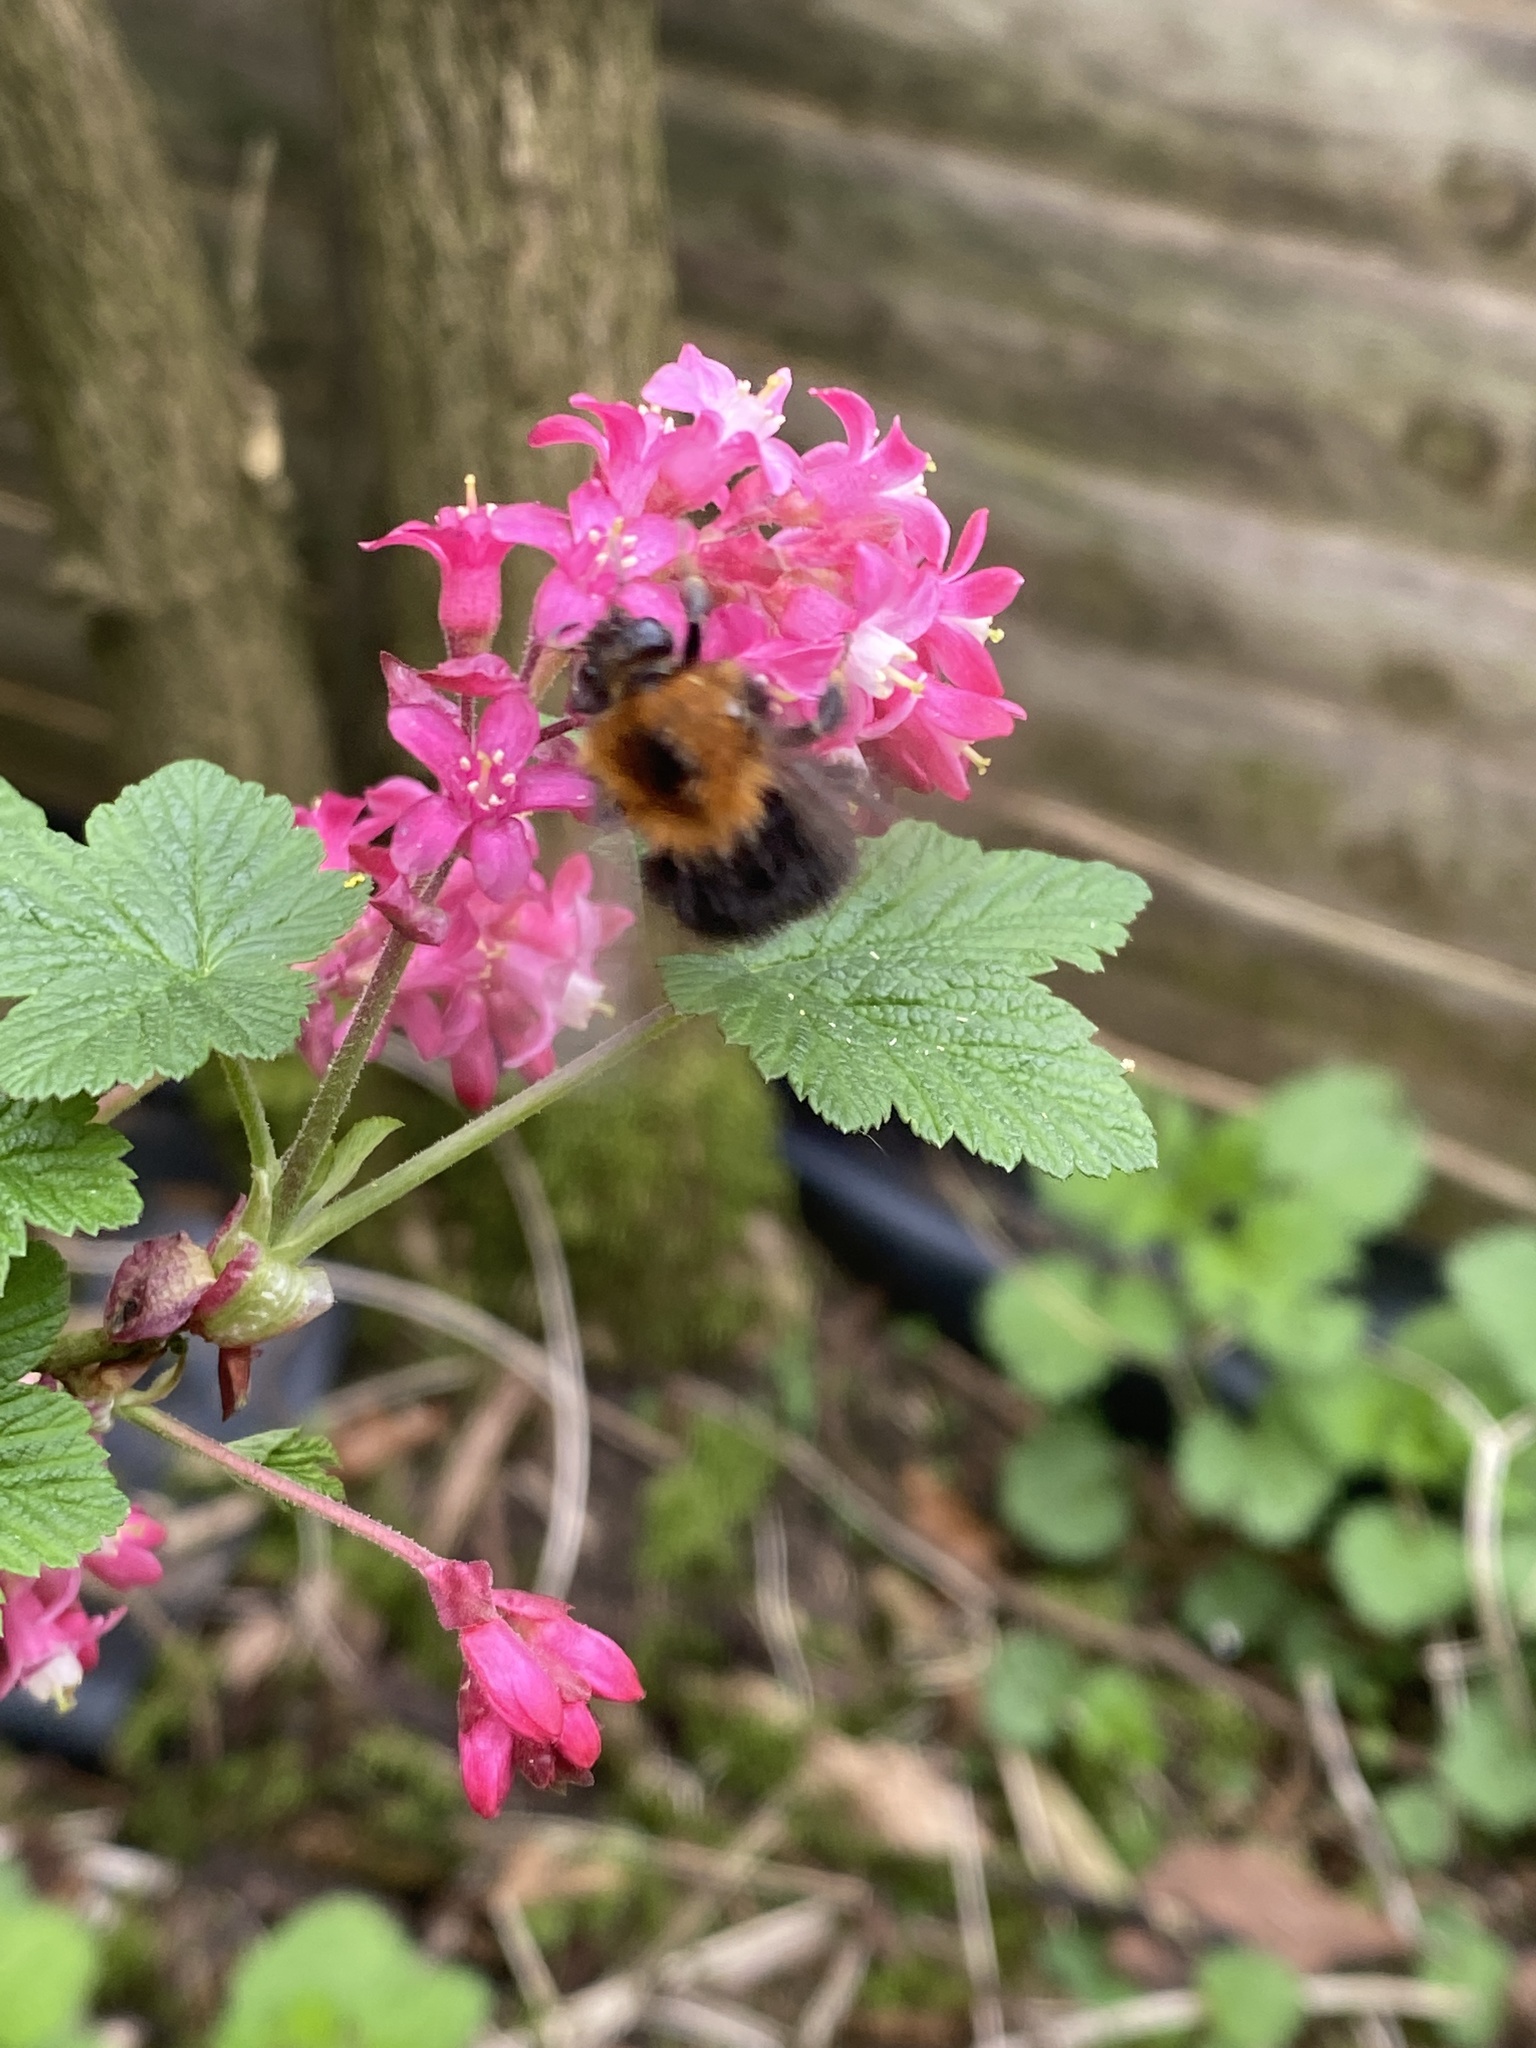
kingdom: Animalia
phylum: Arthropoda
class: Insecta
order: Hymenoptera
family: Apidae
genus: Bombus
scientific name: Bombus hypnorum
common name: New garden bumblebee
